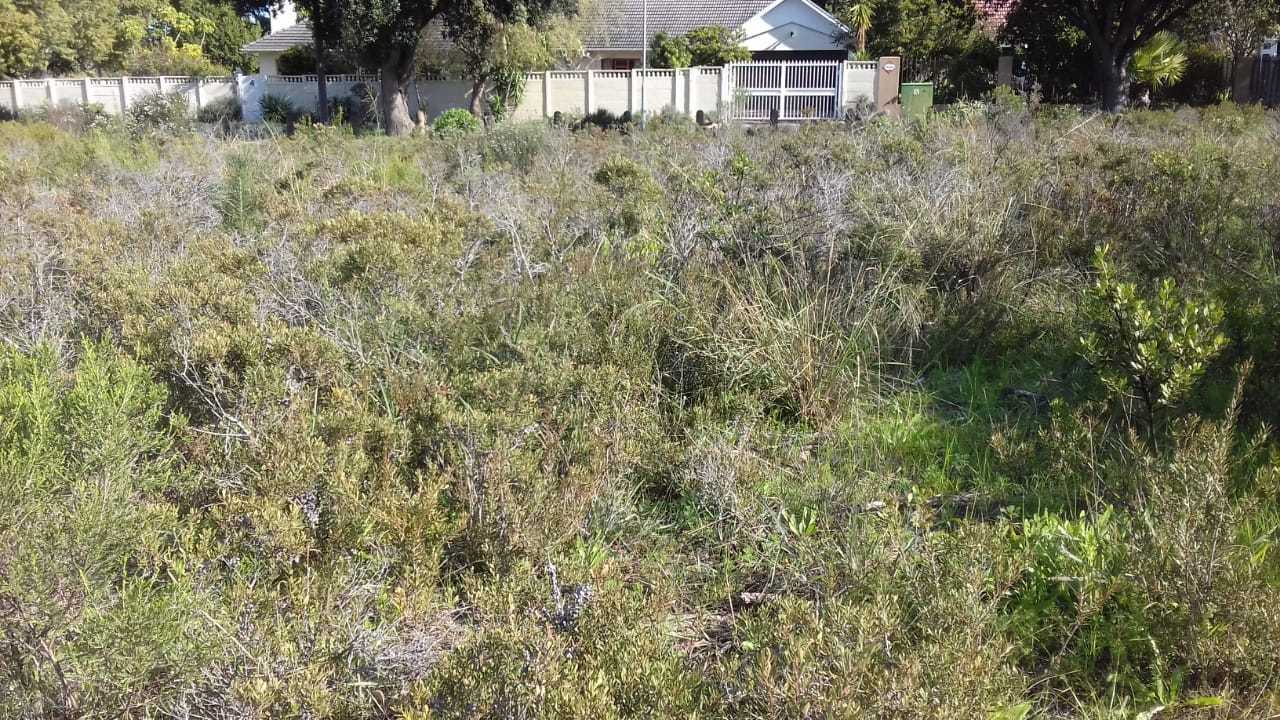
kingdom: Plantae
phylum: Tracheophyta
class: Magnoliopsida
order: Fagales
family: Myricaceae
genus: Morella
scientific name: Morella quercifolia
